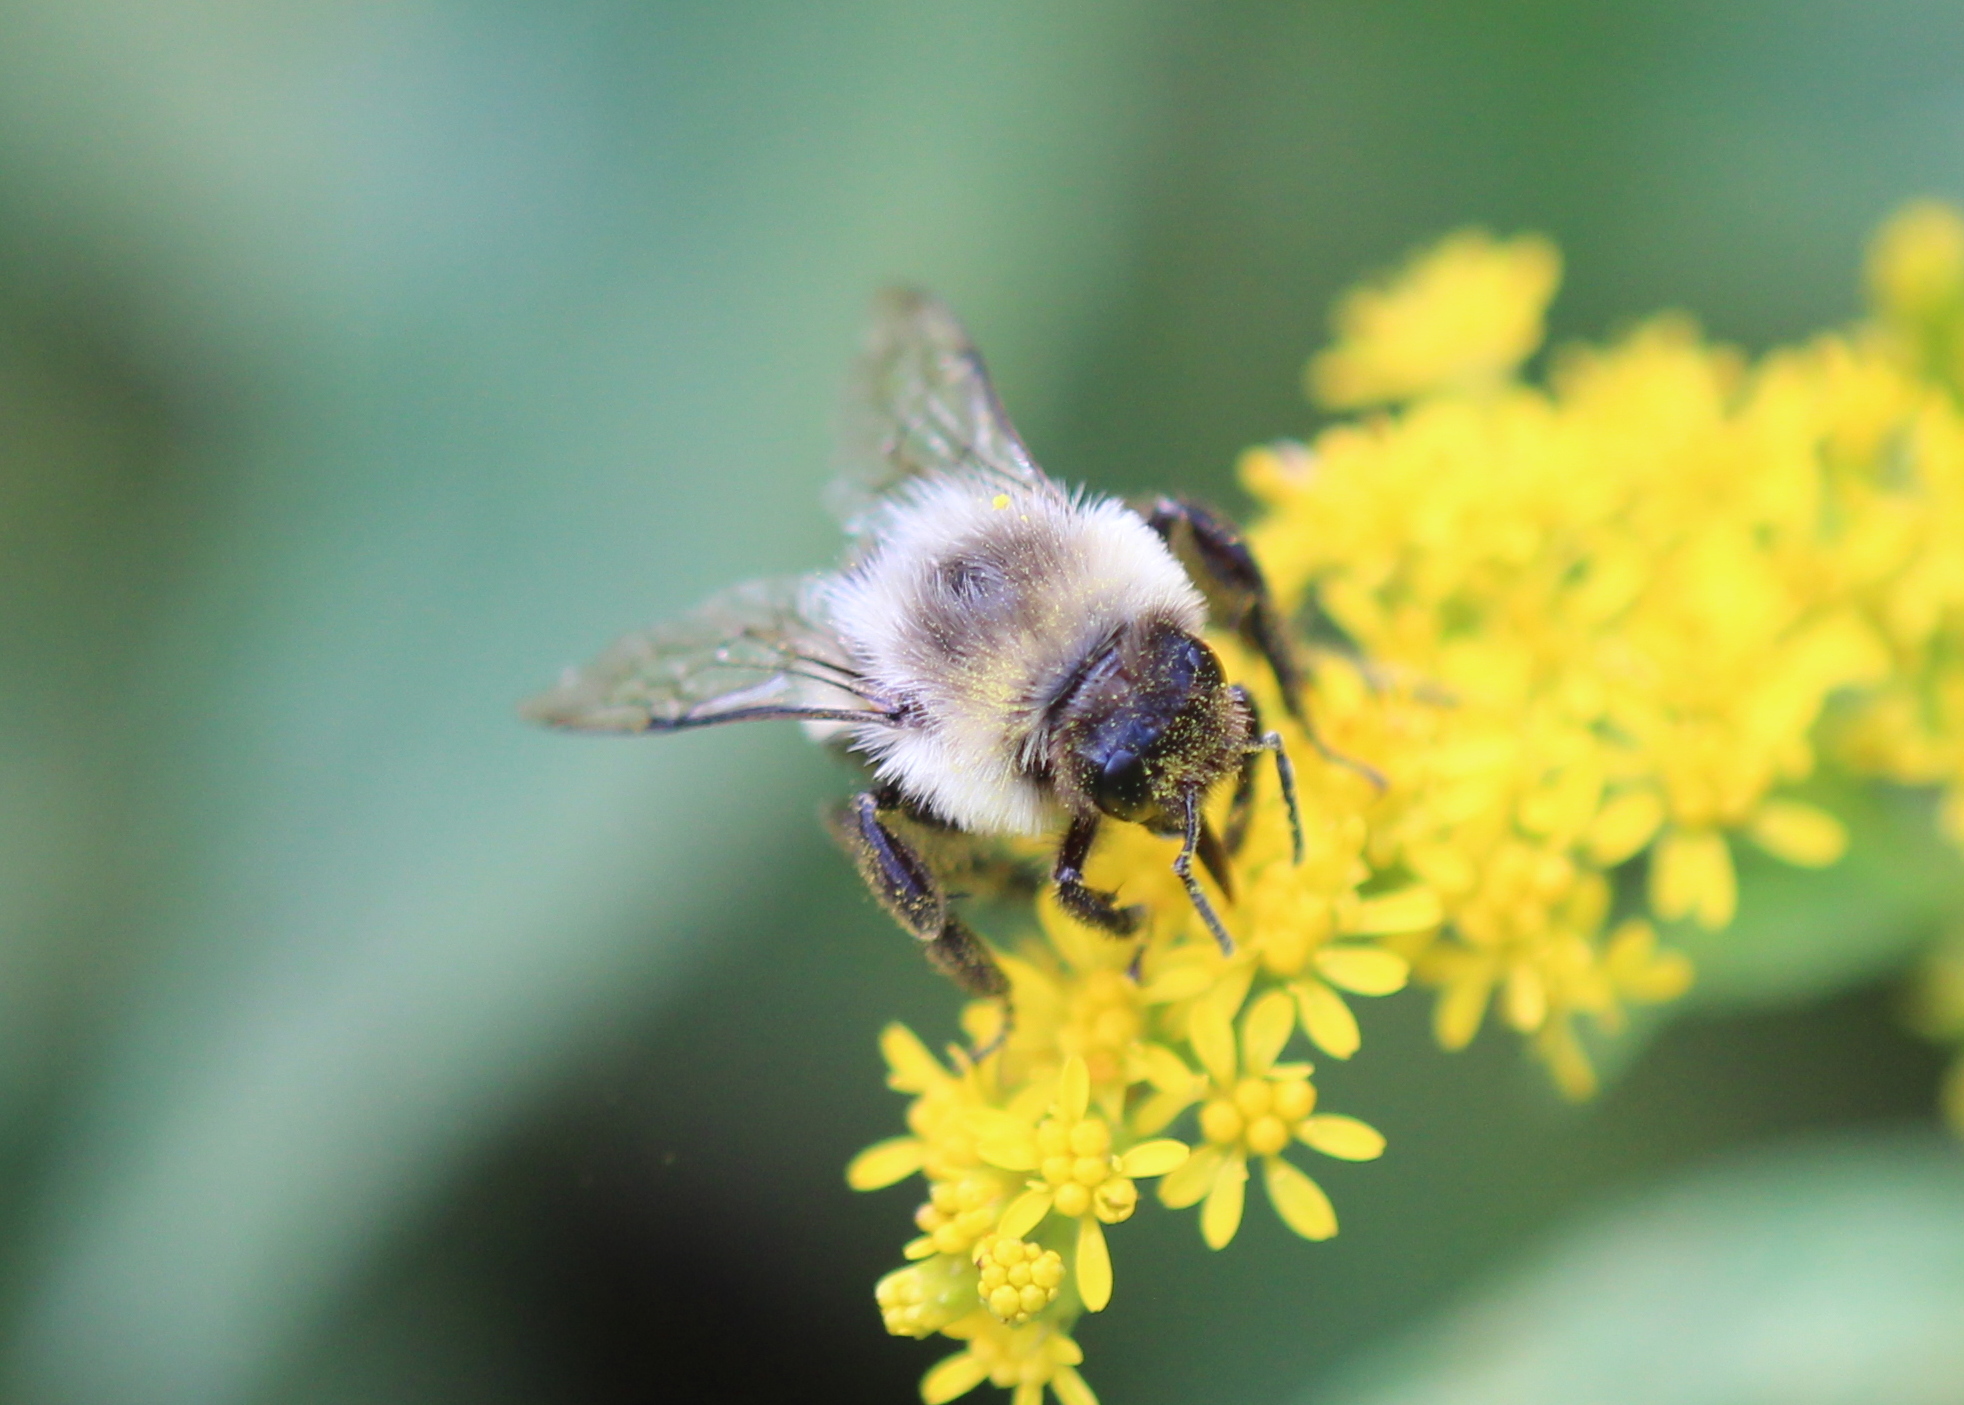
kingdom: Animalia
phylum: Arthropoda
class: Insecta
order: Hymenoptera
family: Apidae
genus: Bombus
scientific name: Bombus impatiens
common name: Common eastern bumble bee
